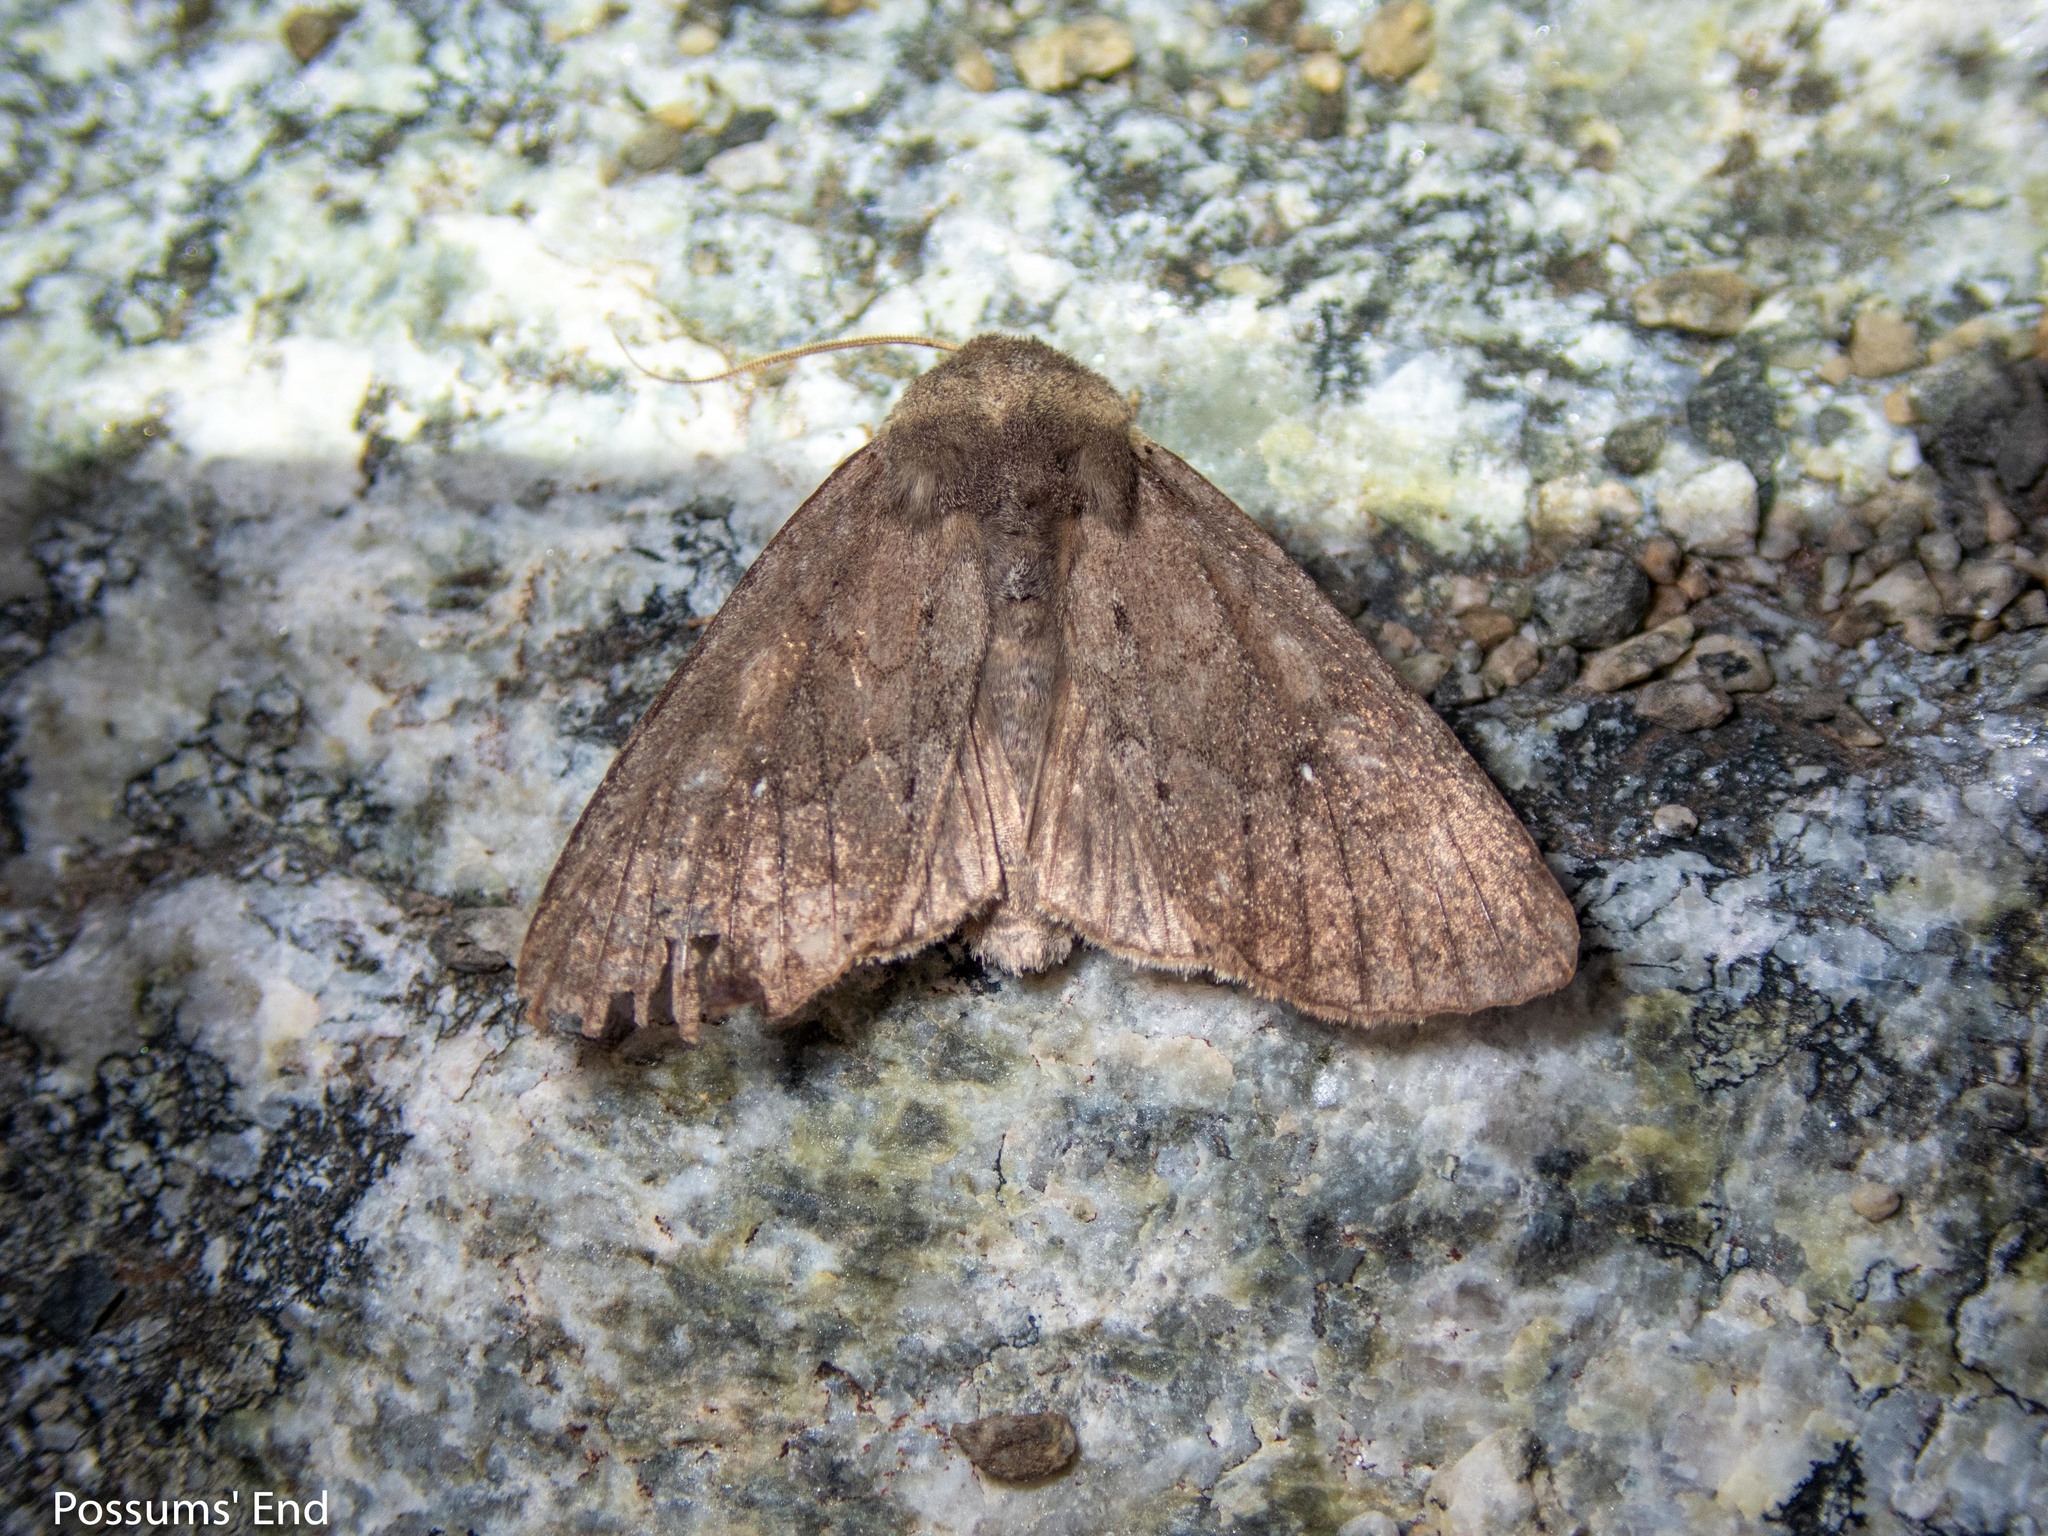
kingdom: Animalia
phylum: Arthropoda
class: Insecta
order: Lepidoptera
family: Noctuidae
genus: Ichneutica
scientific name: Ichneutica nullifera
